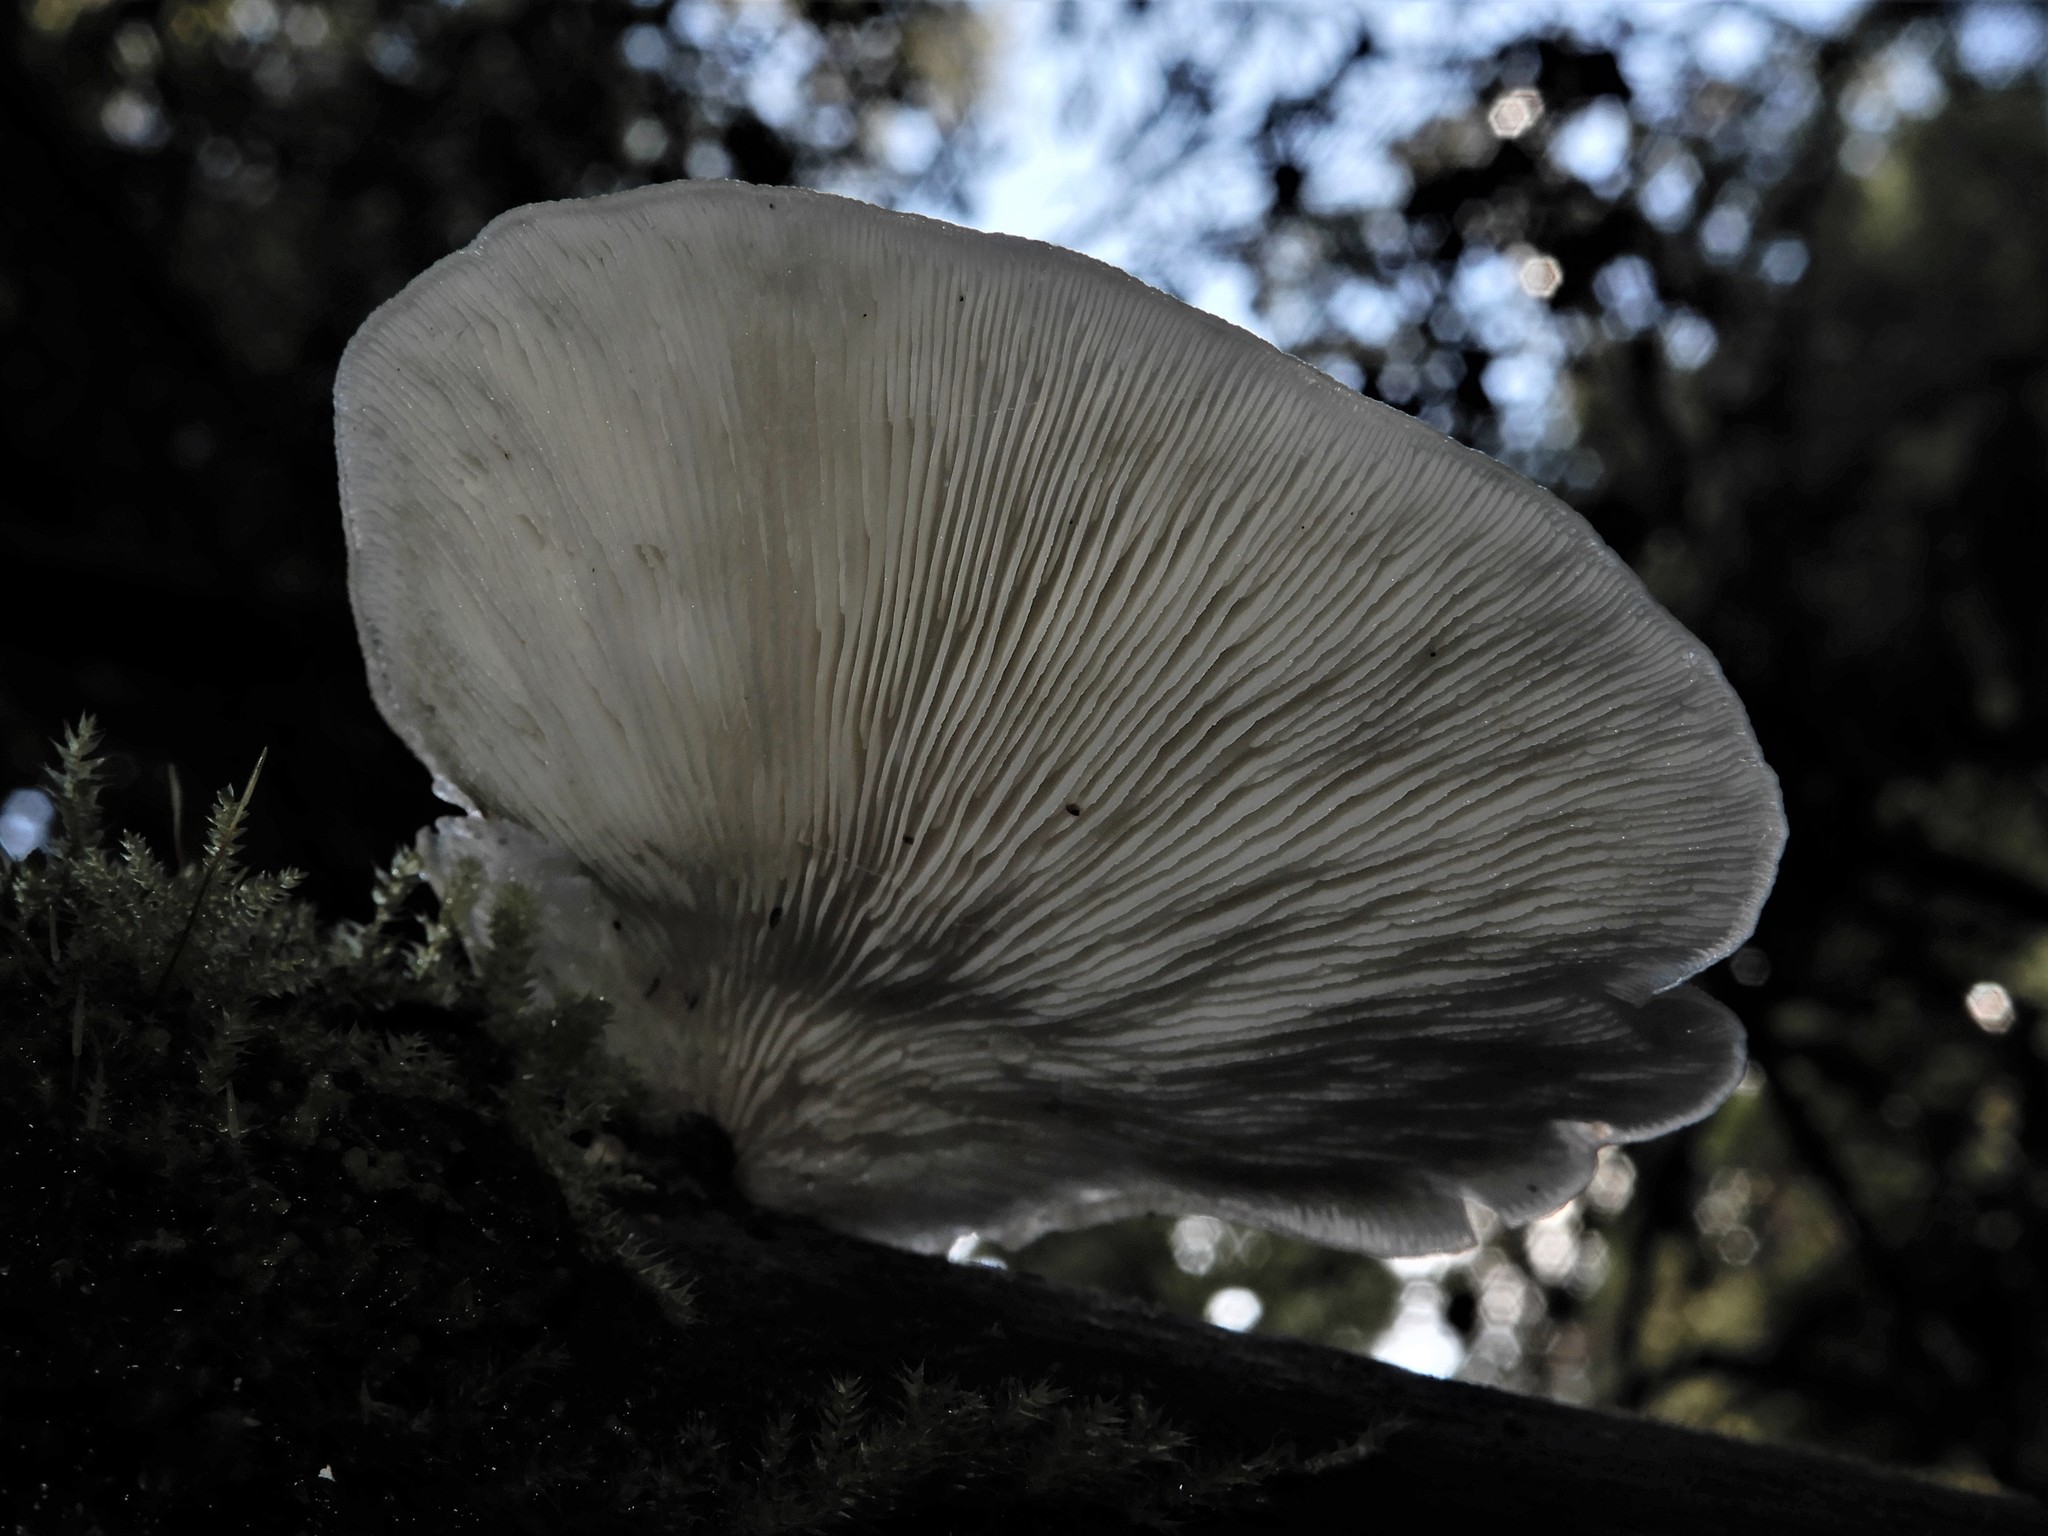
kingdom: Fungi
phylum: Basidiomycota
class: Agaricomycetes
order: Agaricales
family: Tricholomataceae
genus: Conchomyces
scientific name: Conchomyces bursiformis
